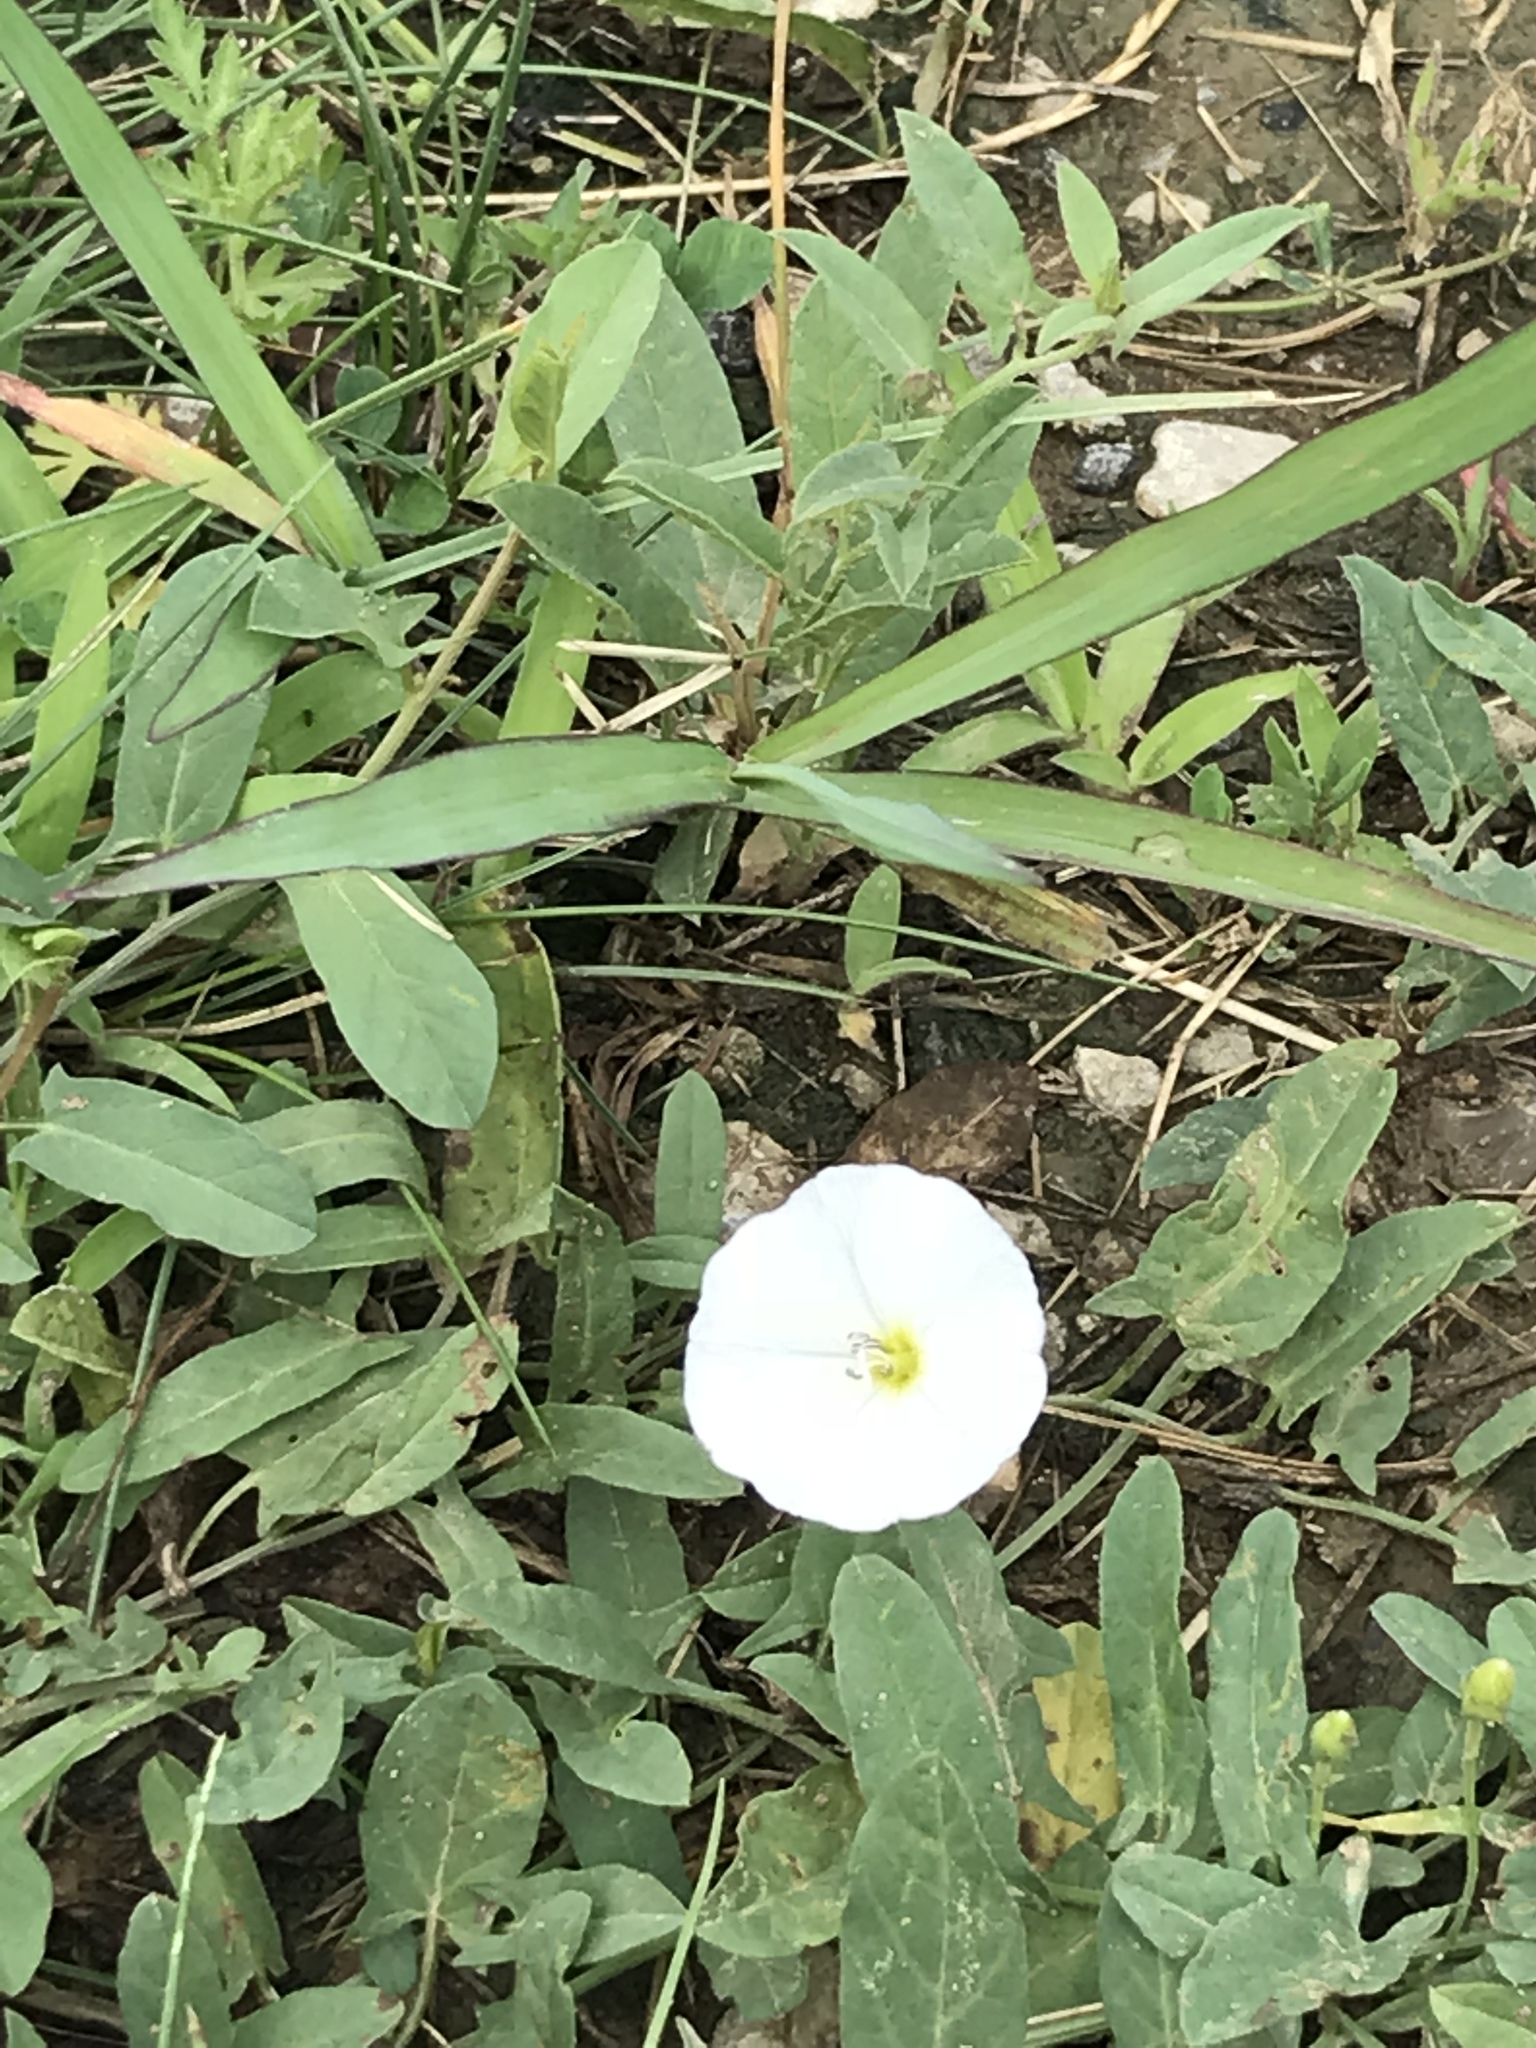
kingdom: Plantae
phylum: Tracheophyta
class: Magnoliopsida
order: Solanales
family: Convolvulaceae
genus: Convolvulus
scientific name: Convolvulus arvensis
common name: Field bindweed
